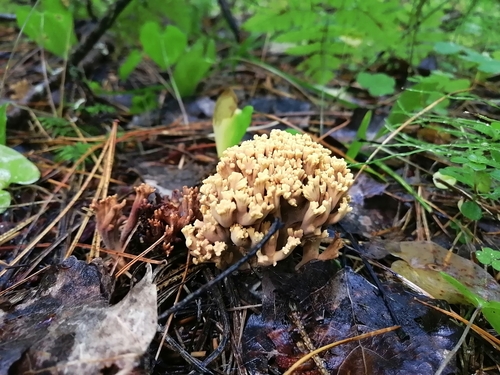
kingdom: Fungi
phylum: Basidiomycota
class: Agaricomycetes
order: Gomphales
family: Gomphaceae
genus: Ramaria
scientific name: Ramaria pallida
